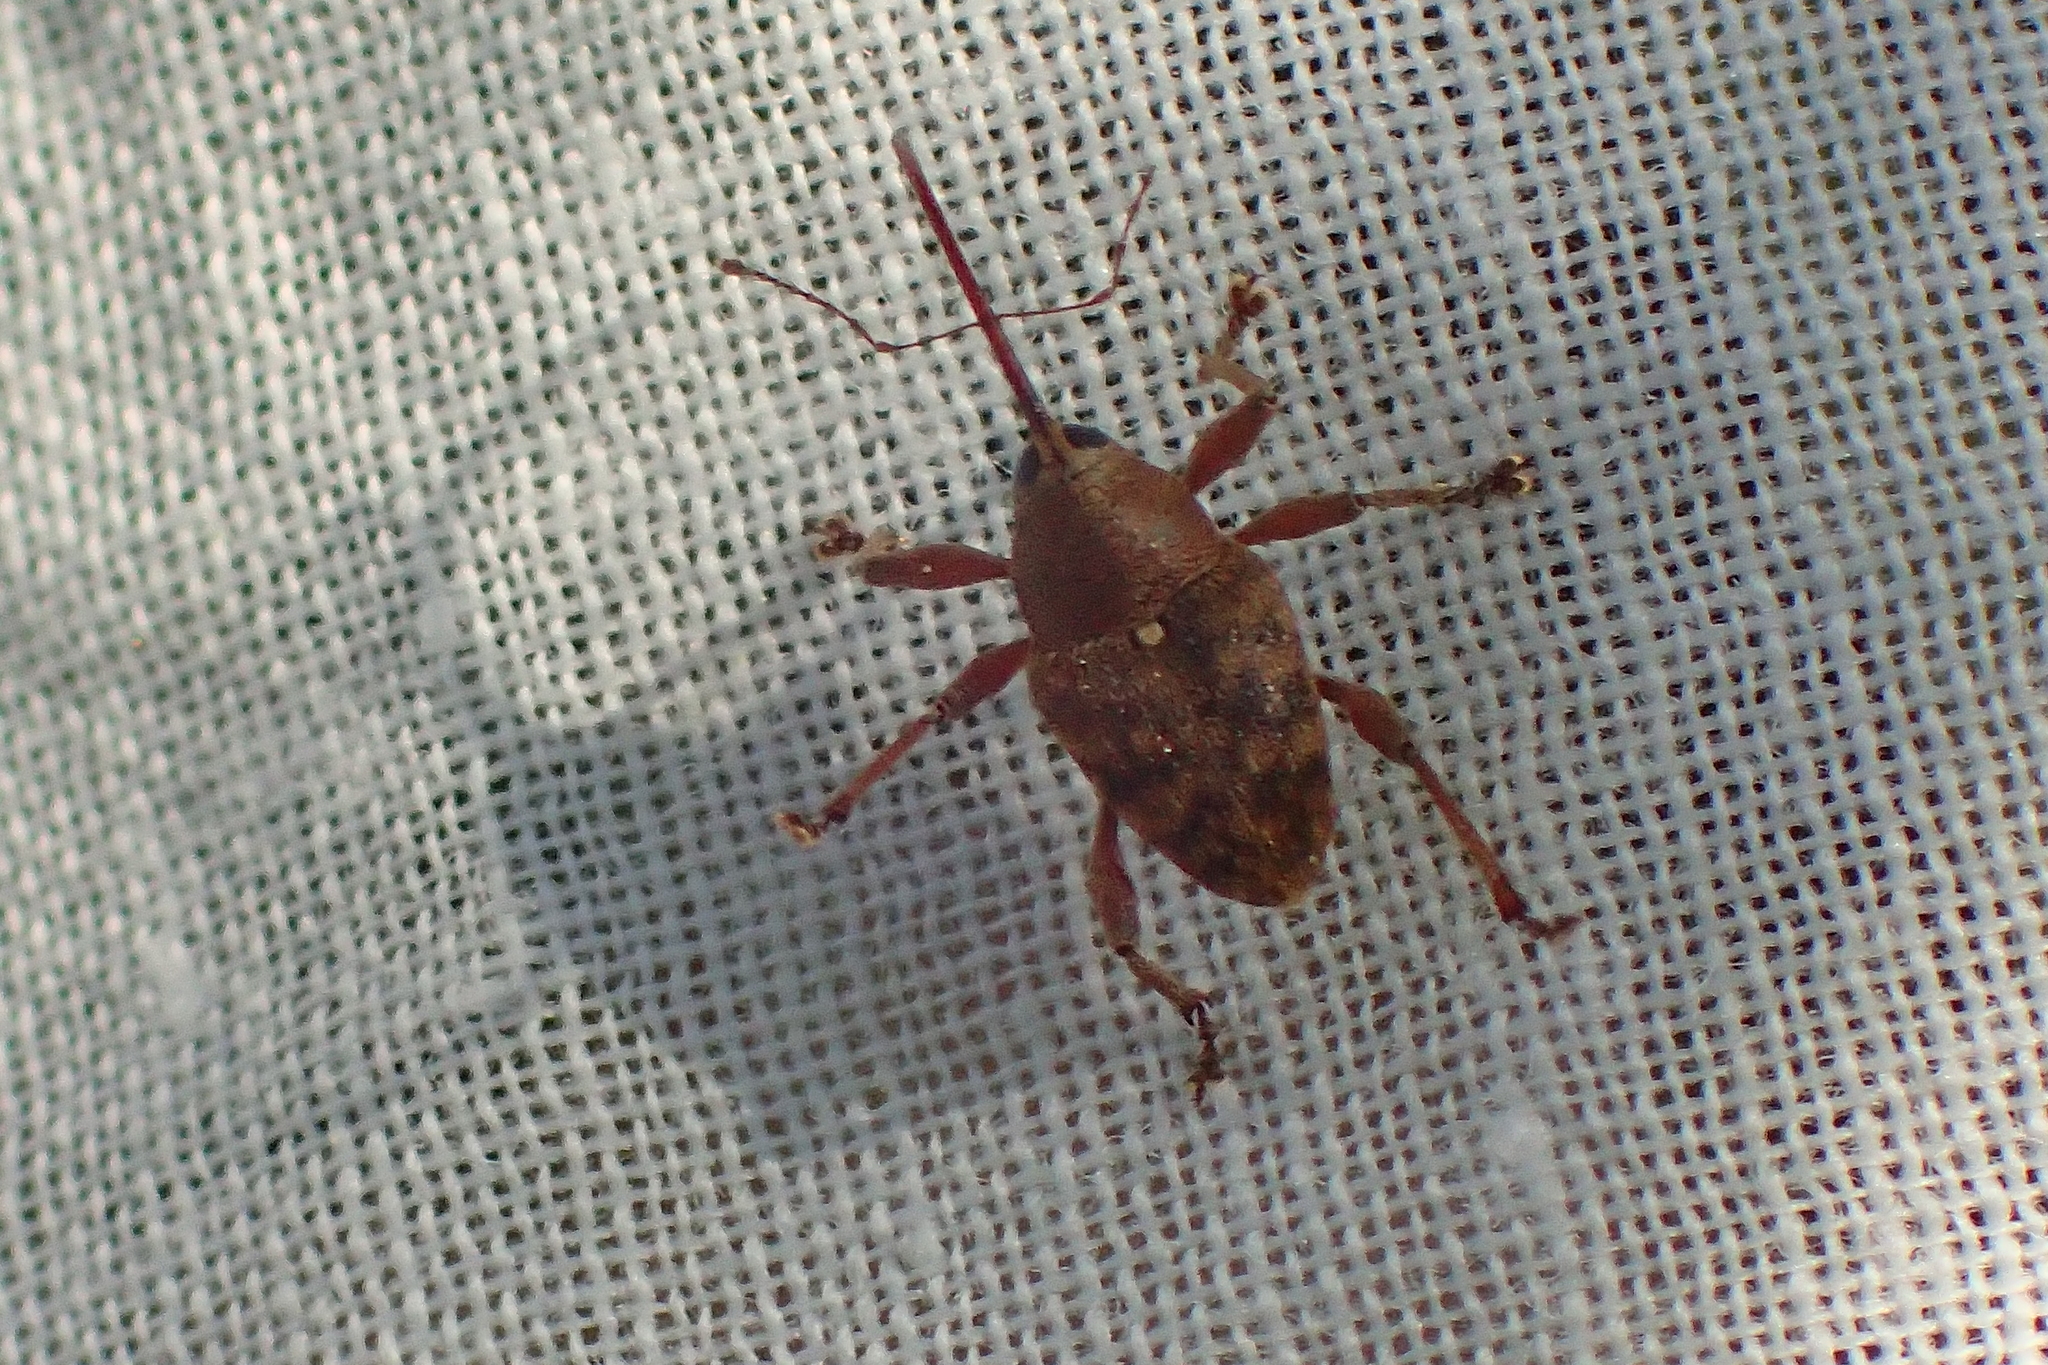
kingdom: Animalia
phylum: Arthropoda
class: Insecta
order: Coleoptera
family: Curculionidae
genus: Curculio
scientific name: Curculio glandium
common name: Acorn weevil
